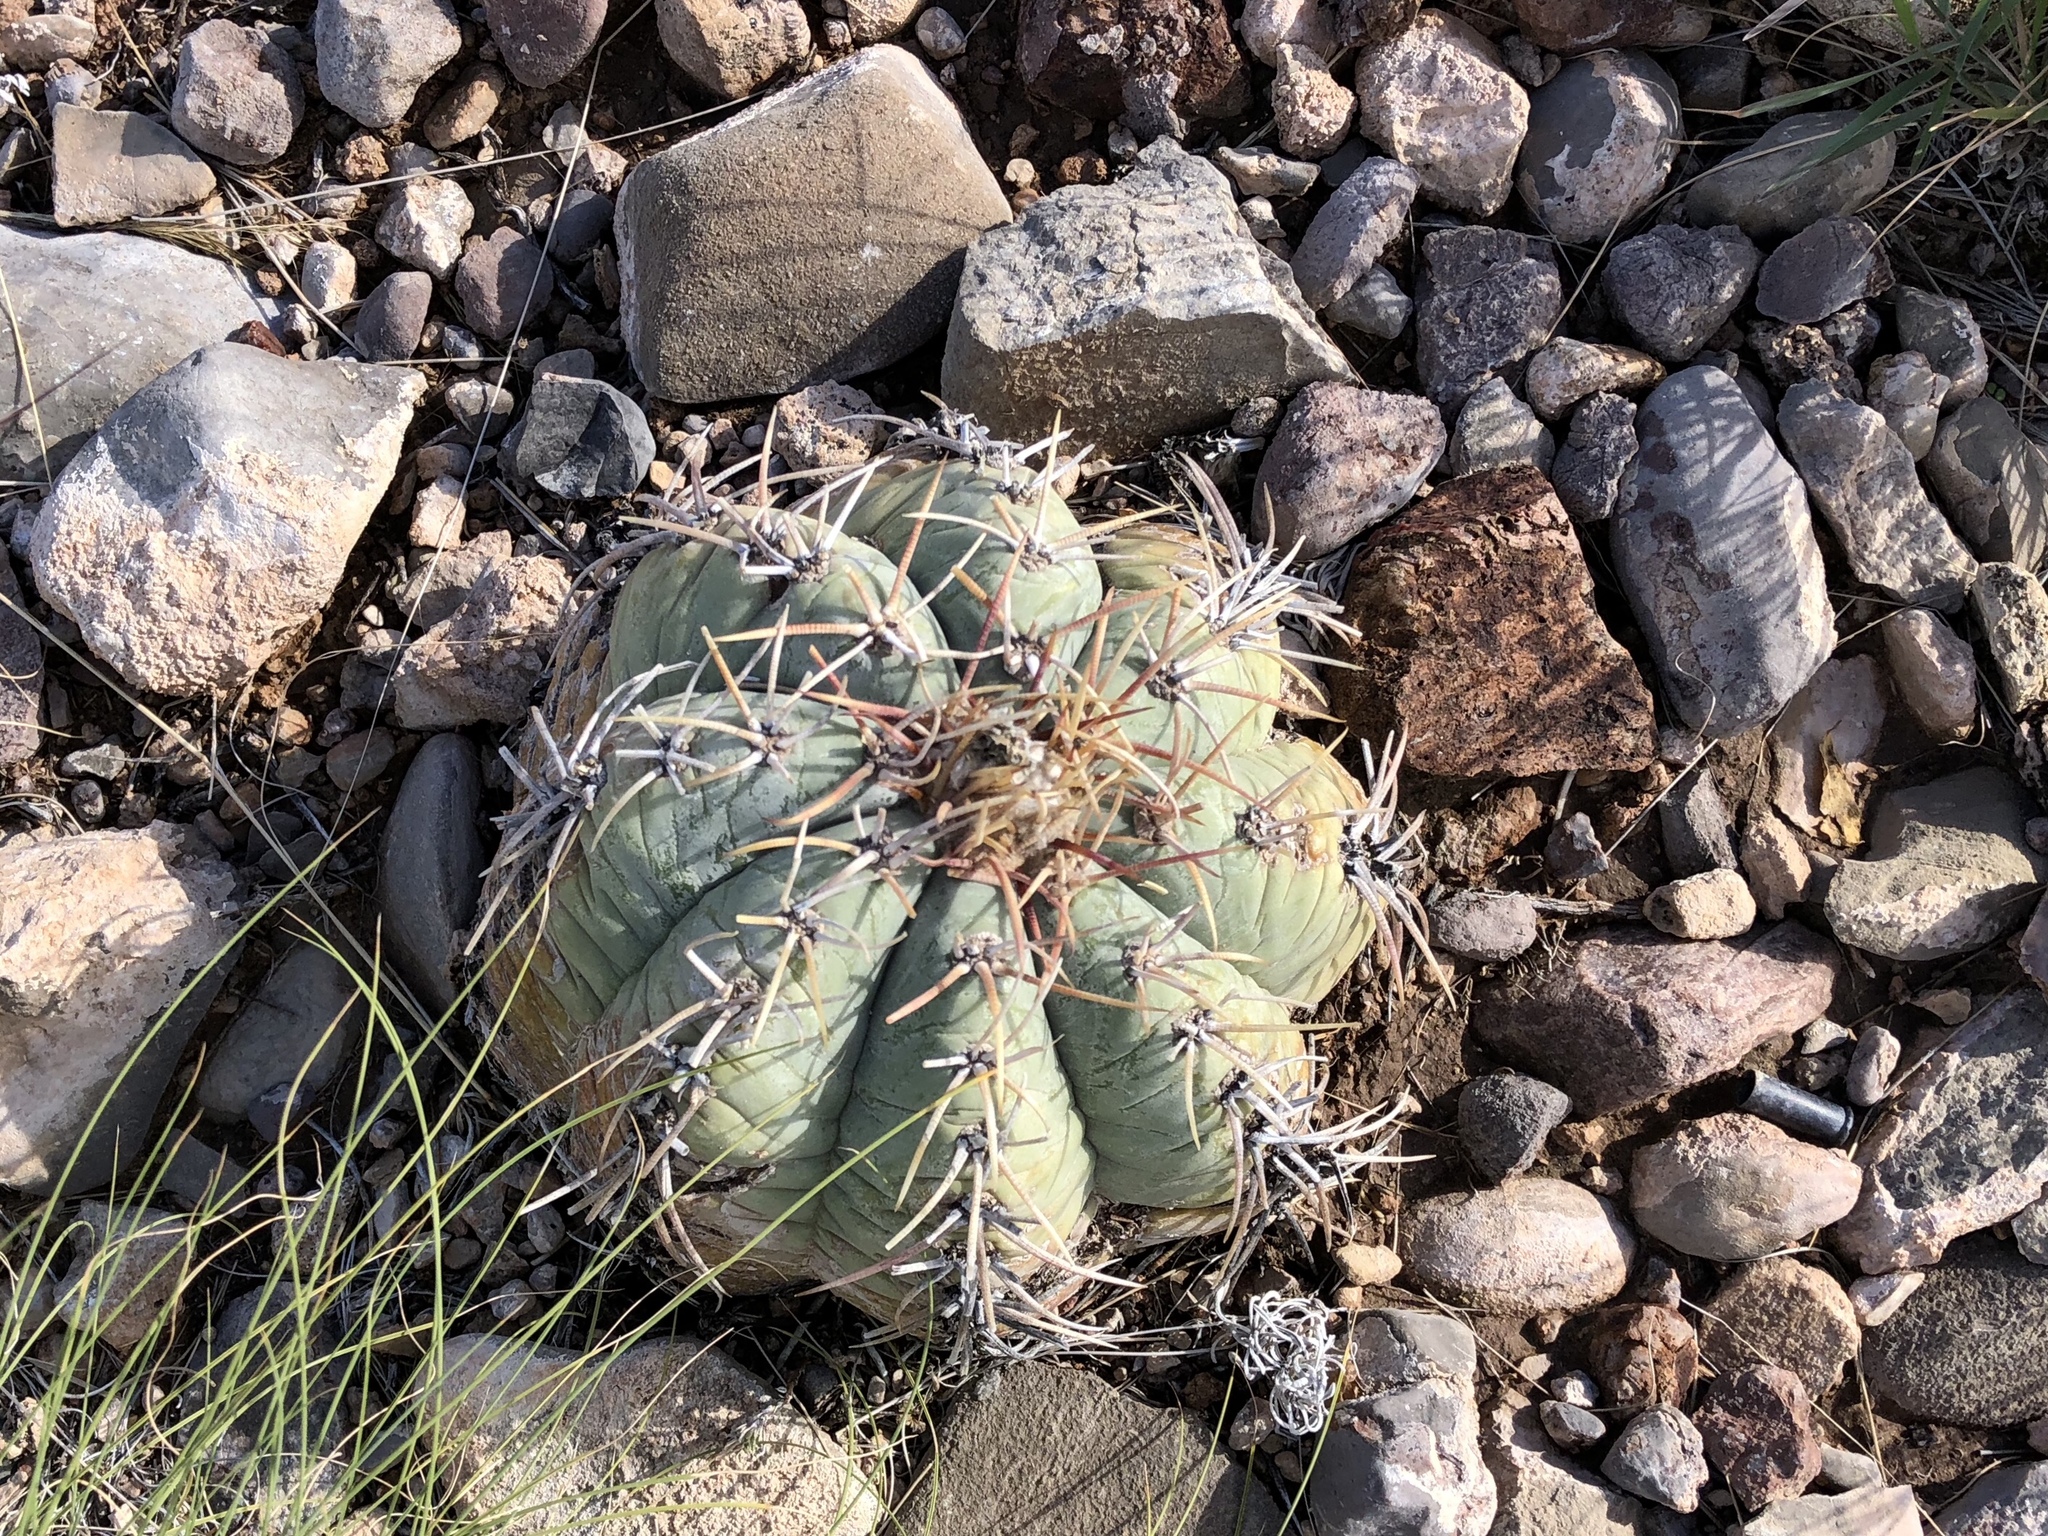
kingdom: Plantae
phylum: Tracheophyta
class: Magnoliopsida
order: Caryophyllales
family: Cactaceae
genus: Echinocactus
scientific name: Echinocactus horizonthalonius
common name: Devilshead
